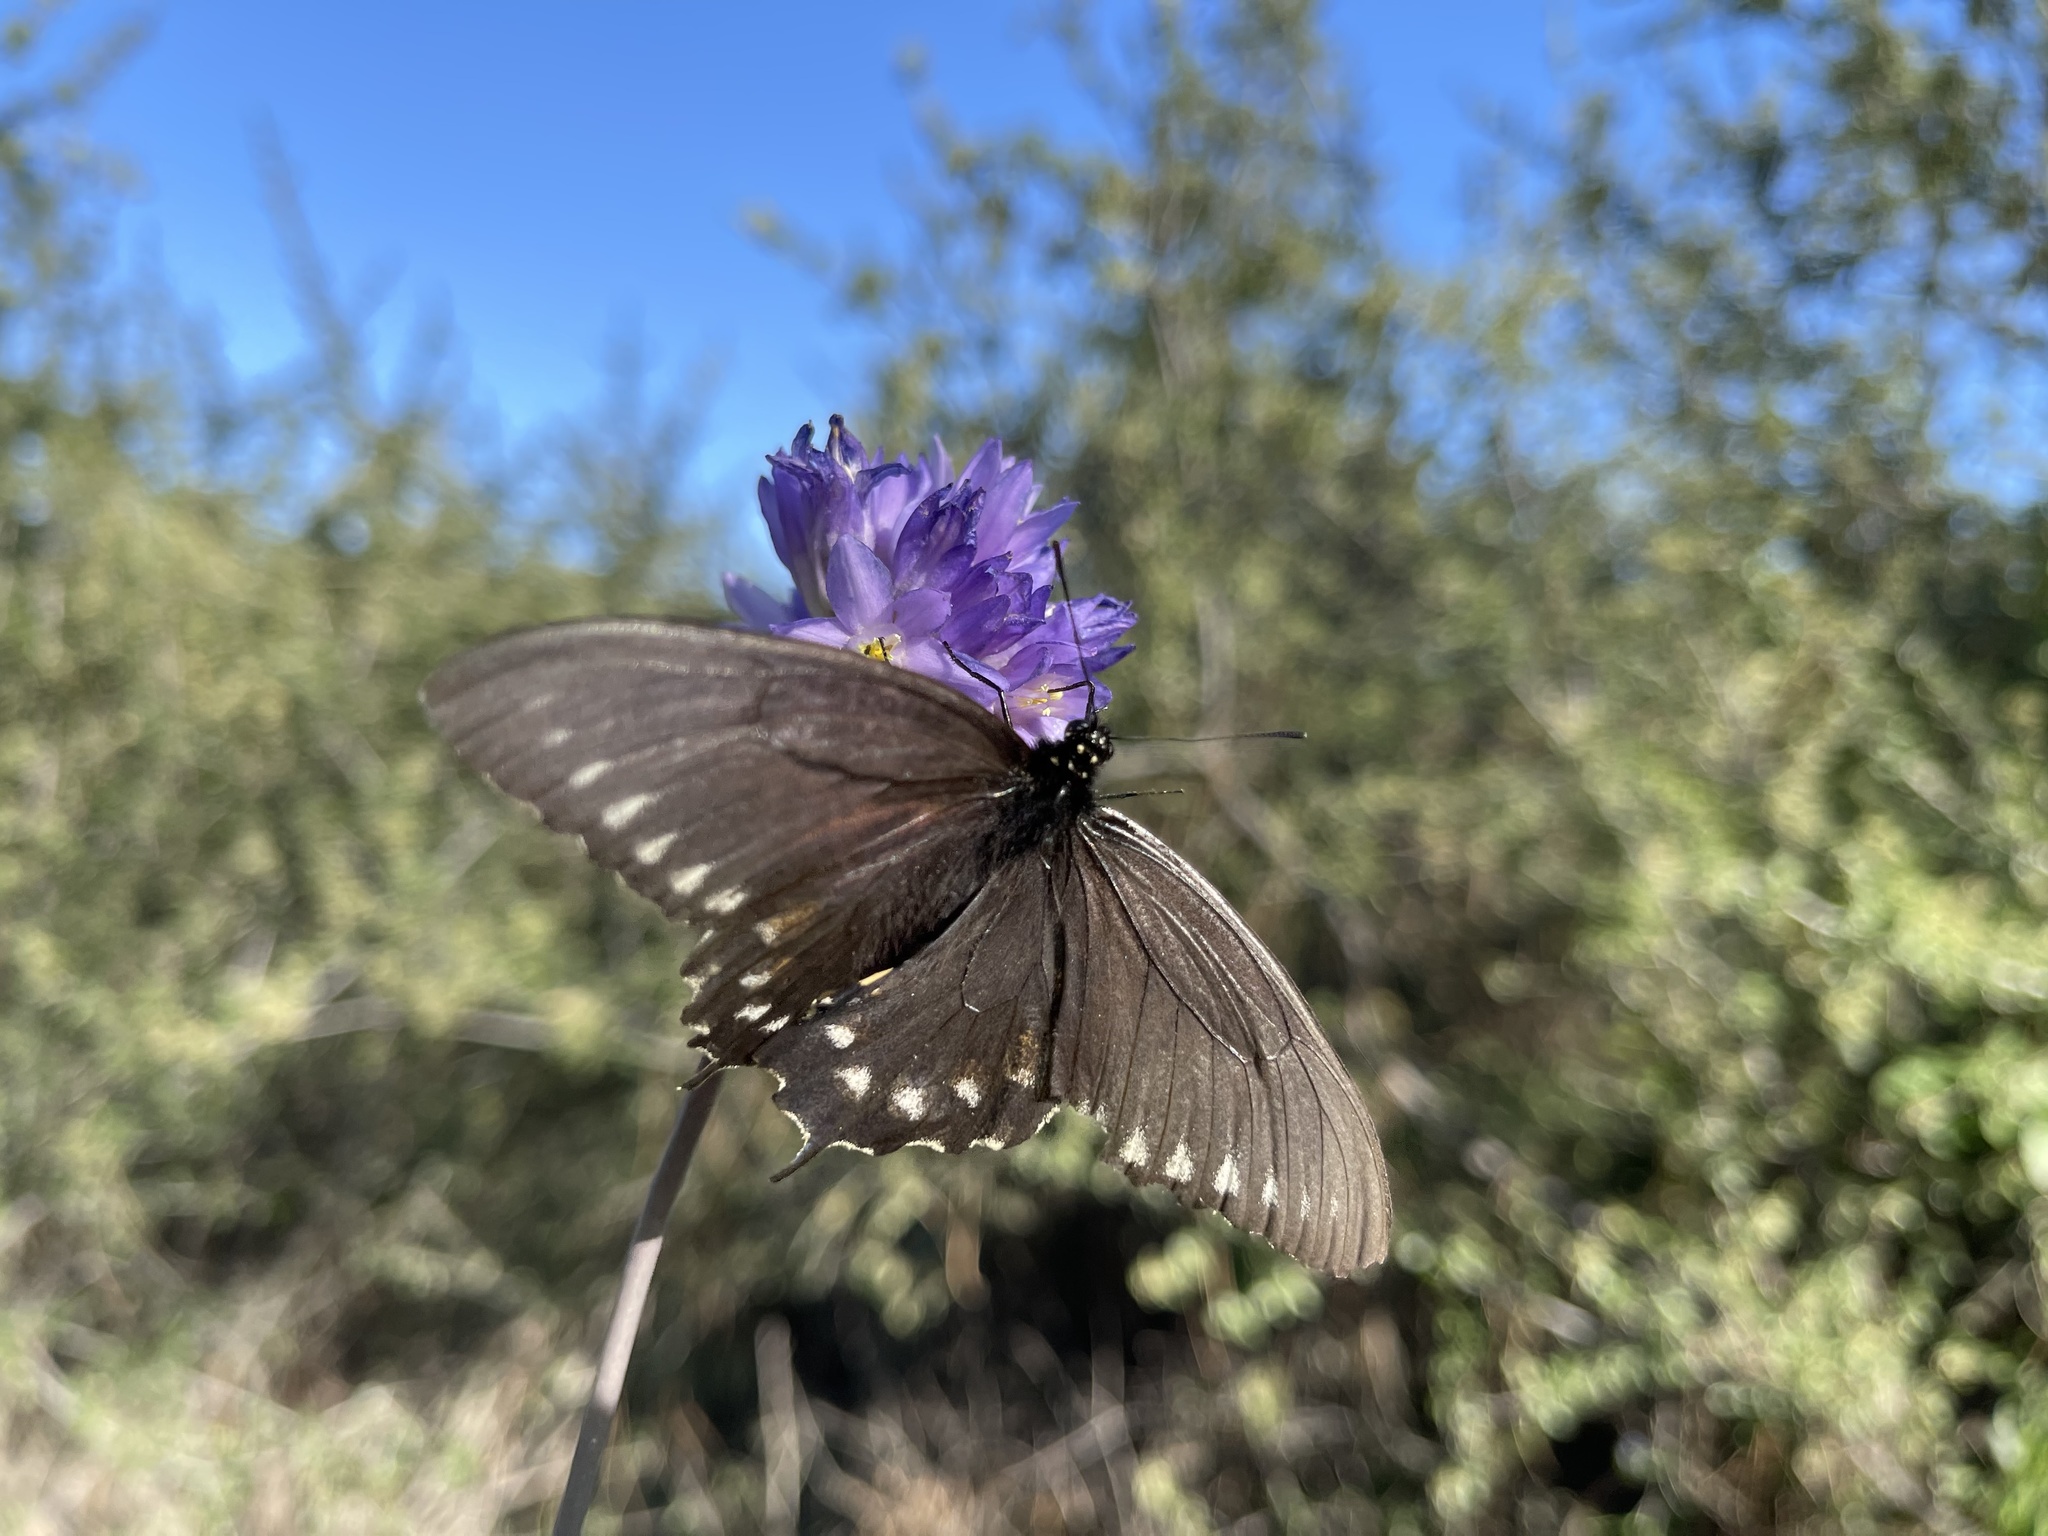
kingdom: Animalia
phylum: Arthropoda
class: Insecta
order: Lepidoptera
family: Papilionidae
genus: Battus
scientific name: Battus philenor
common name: Pipevine swallowtail
